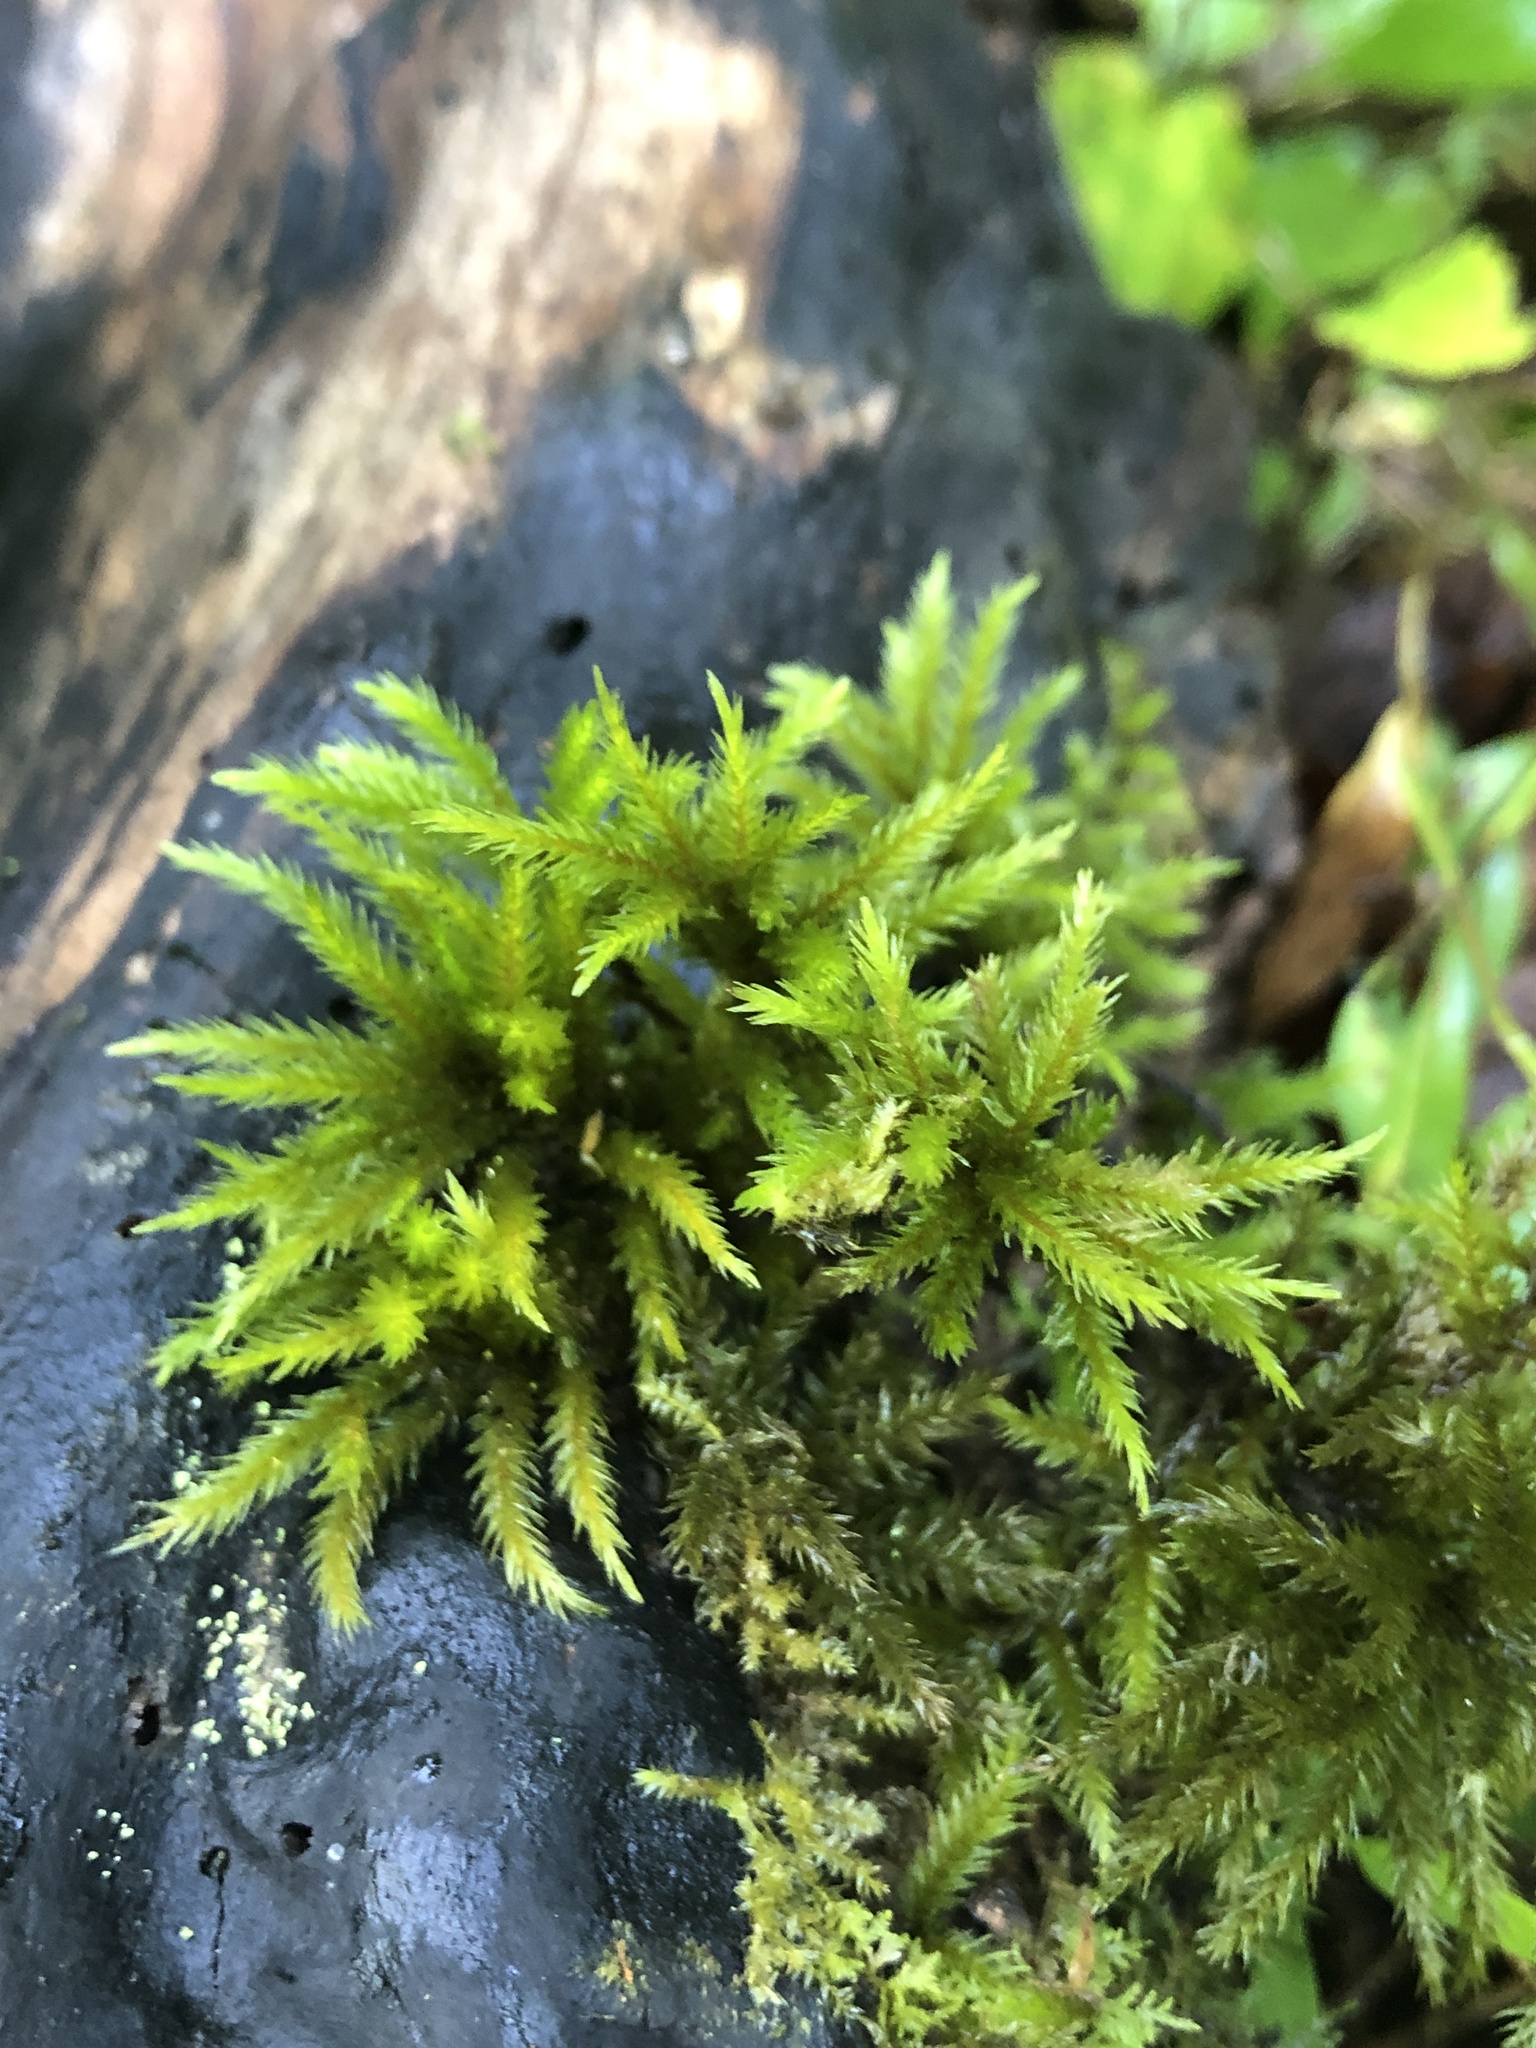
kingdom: Plantae
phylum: Bryophyta
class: Bryopsida
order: Hypnales
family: Climaciaceae
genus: Climacium
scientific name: Climacium americanum
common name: American tree moss
